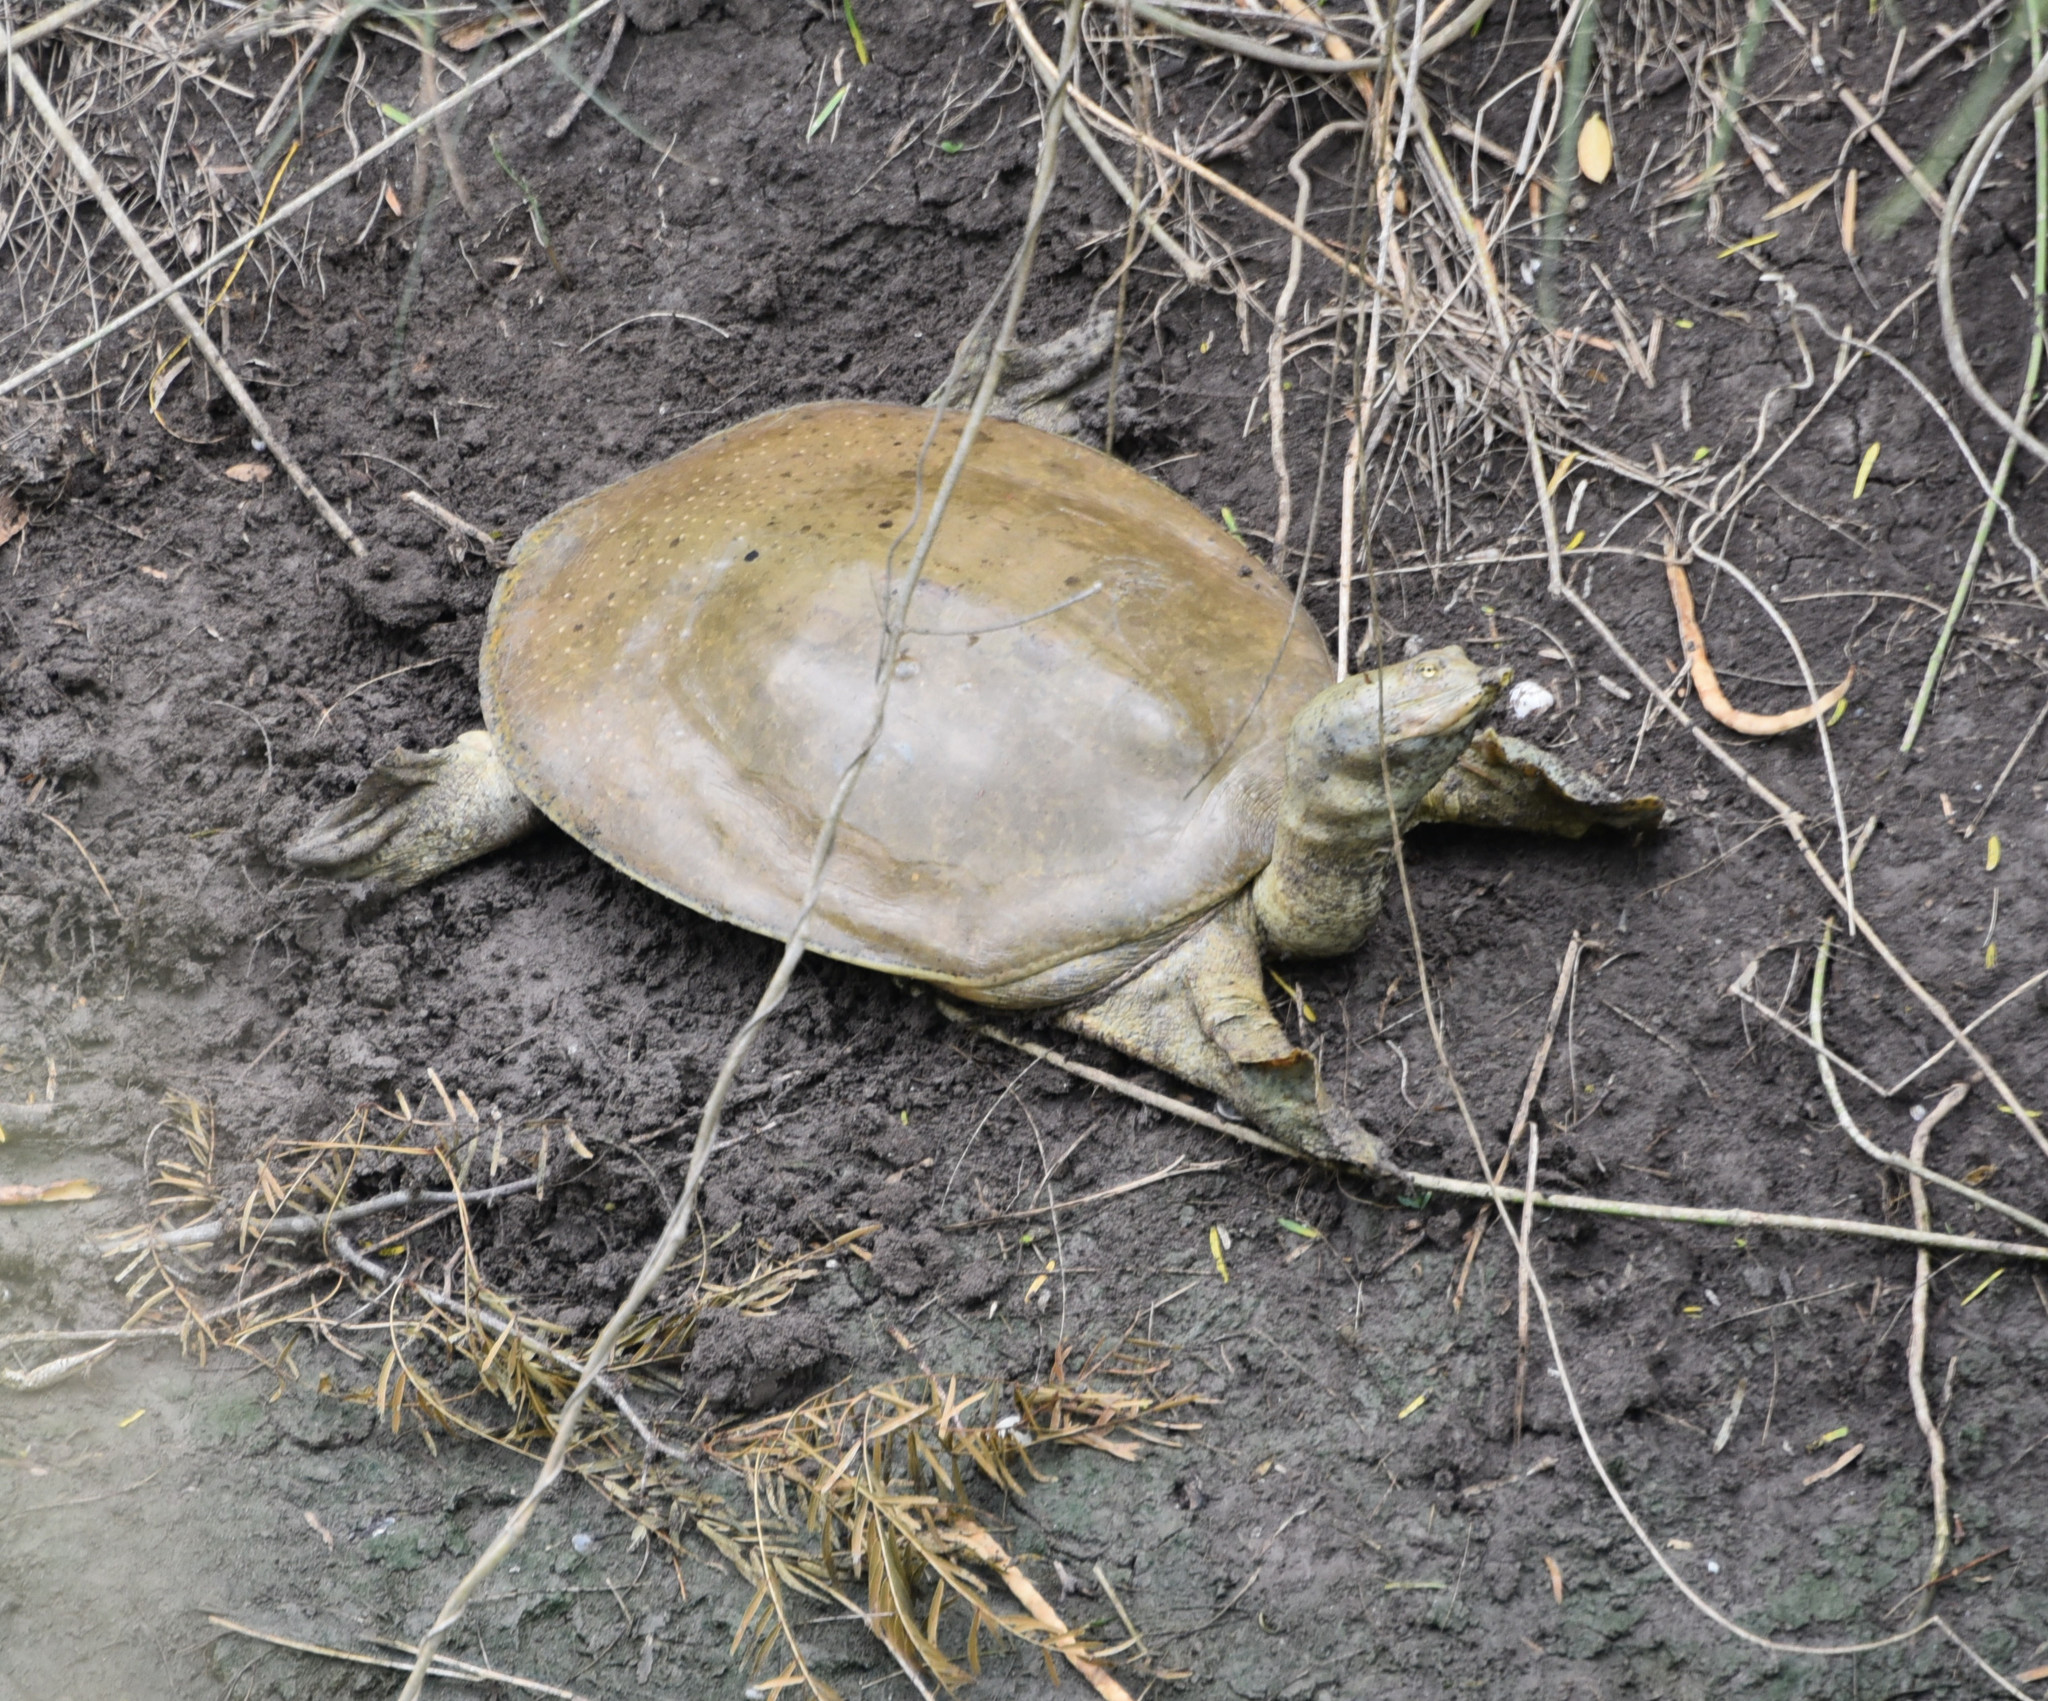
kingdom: Animalia
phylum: Chordata
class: Testudines
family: Trionychidae
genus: Apalone
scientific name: Apalone spinifera
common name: Spiny softshell turtle
